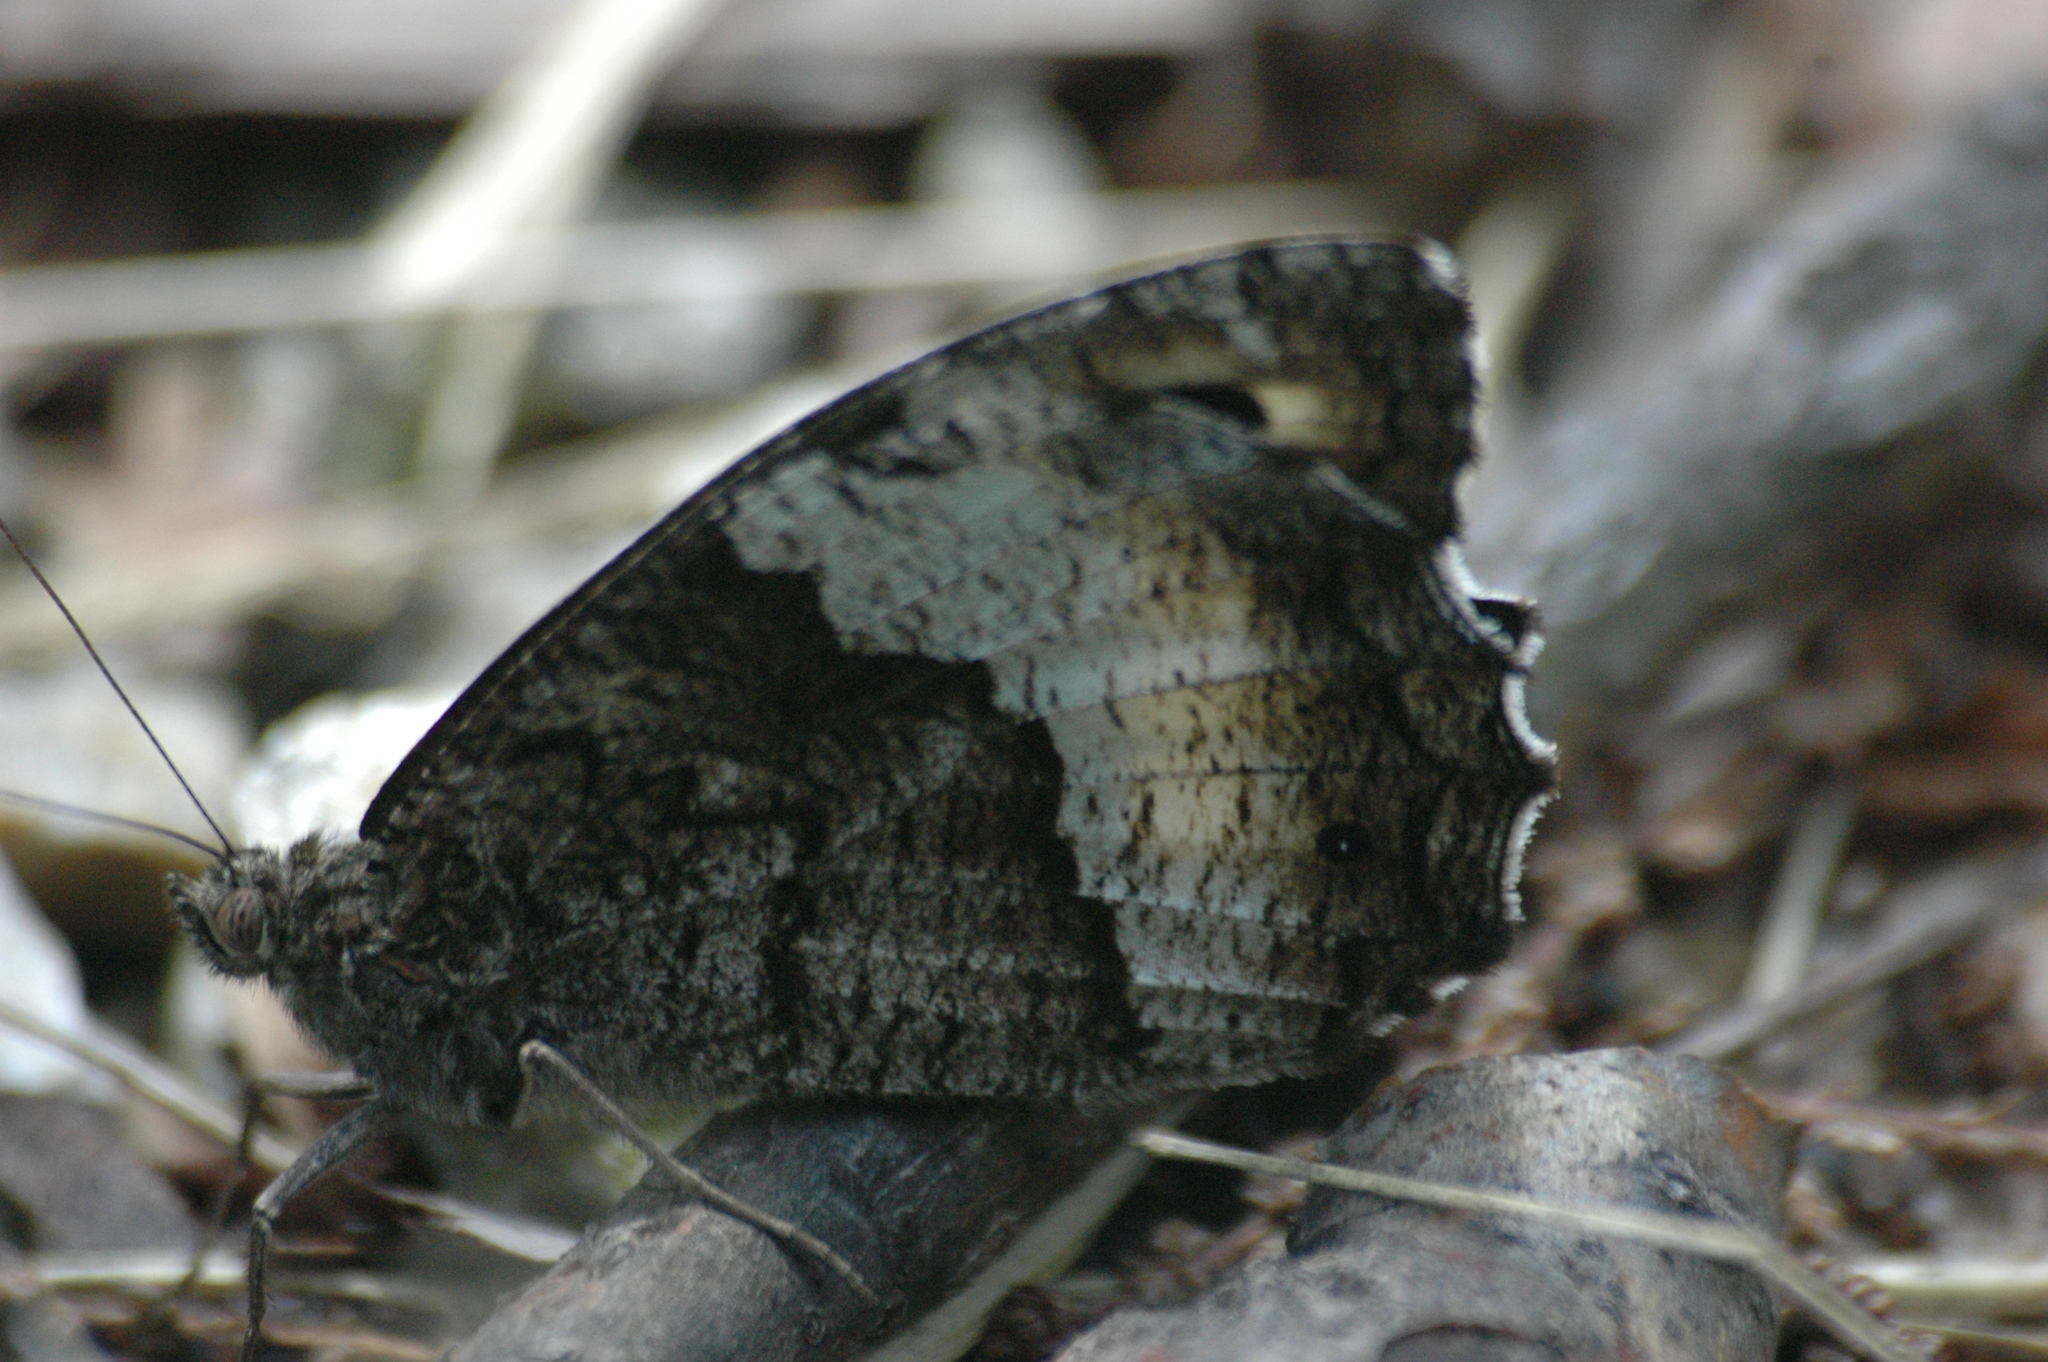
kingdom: Animalia
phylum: Arthropoda
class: Insecta
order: Lepidoptera
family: Nymphalidae
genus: Hipparchia
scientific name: Hipparchia fagi
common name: Woodland grayling
